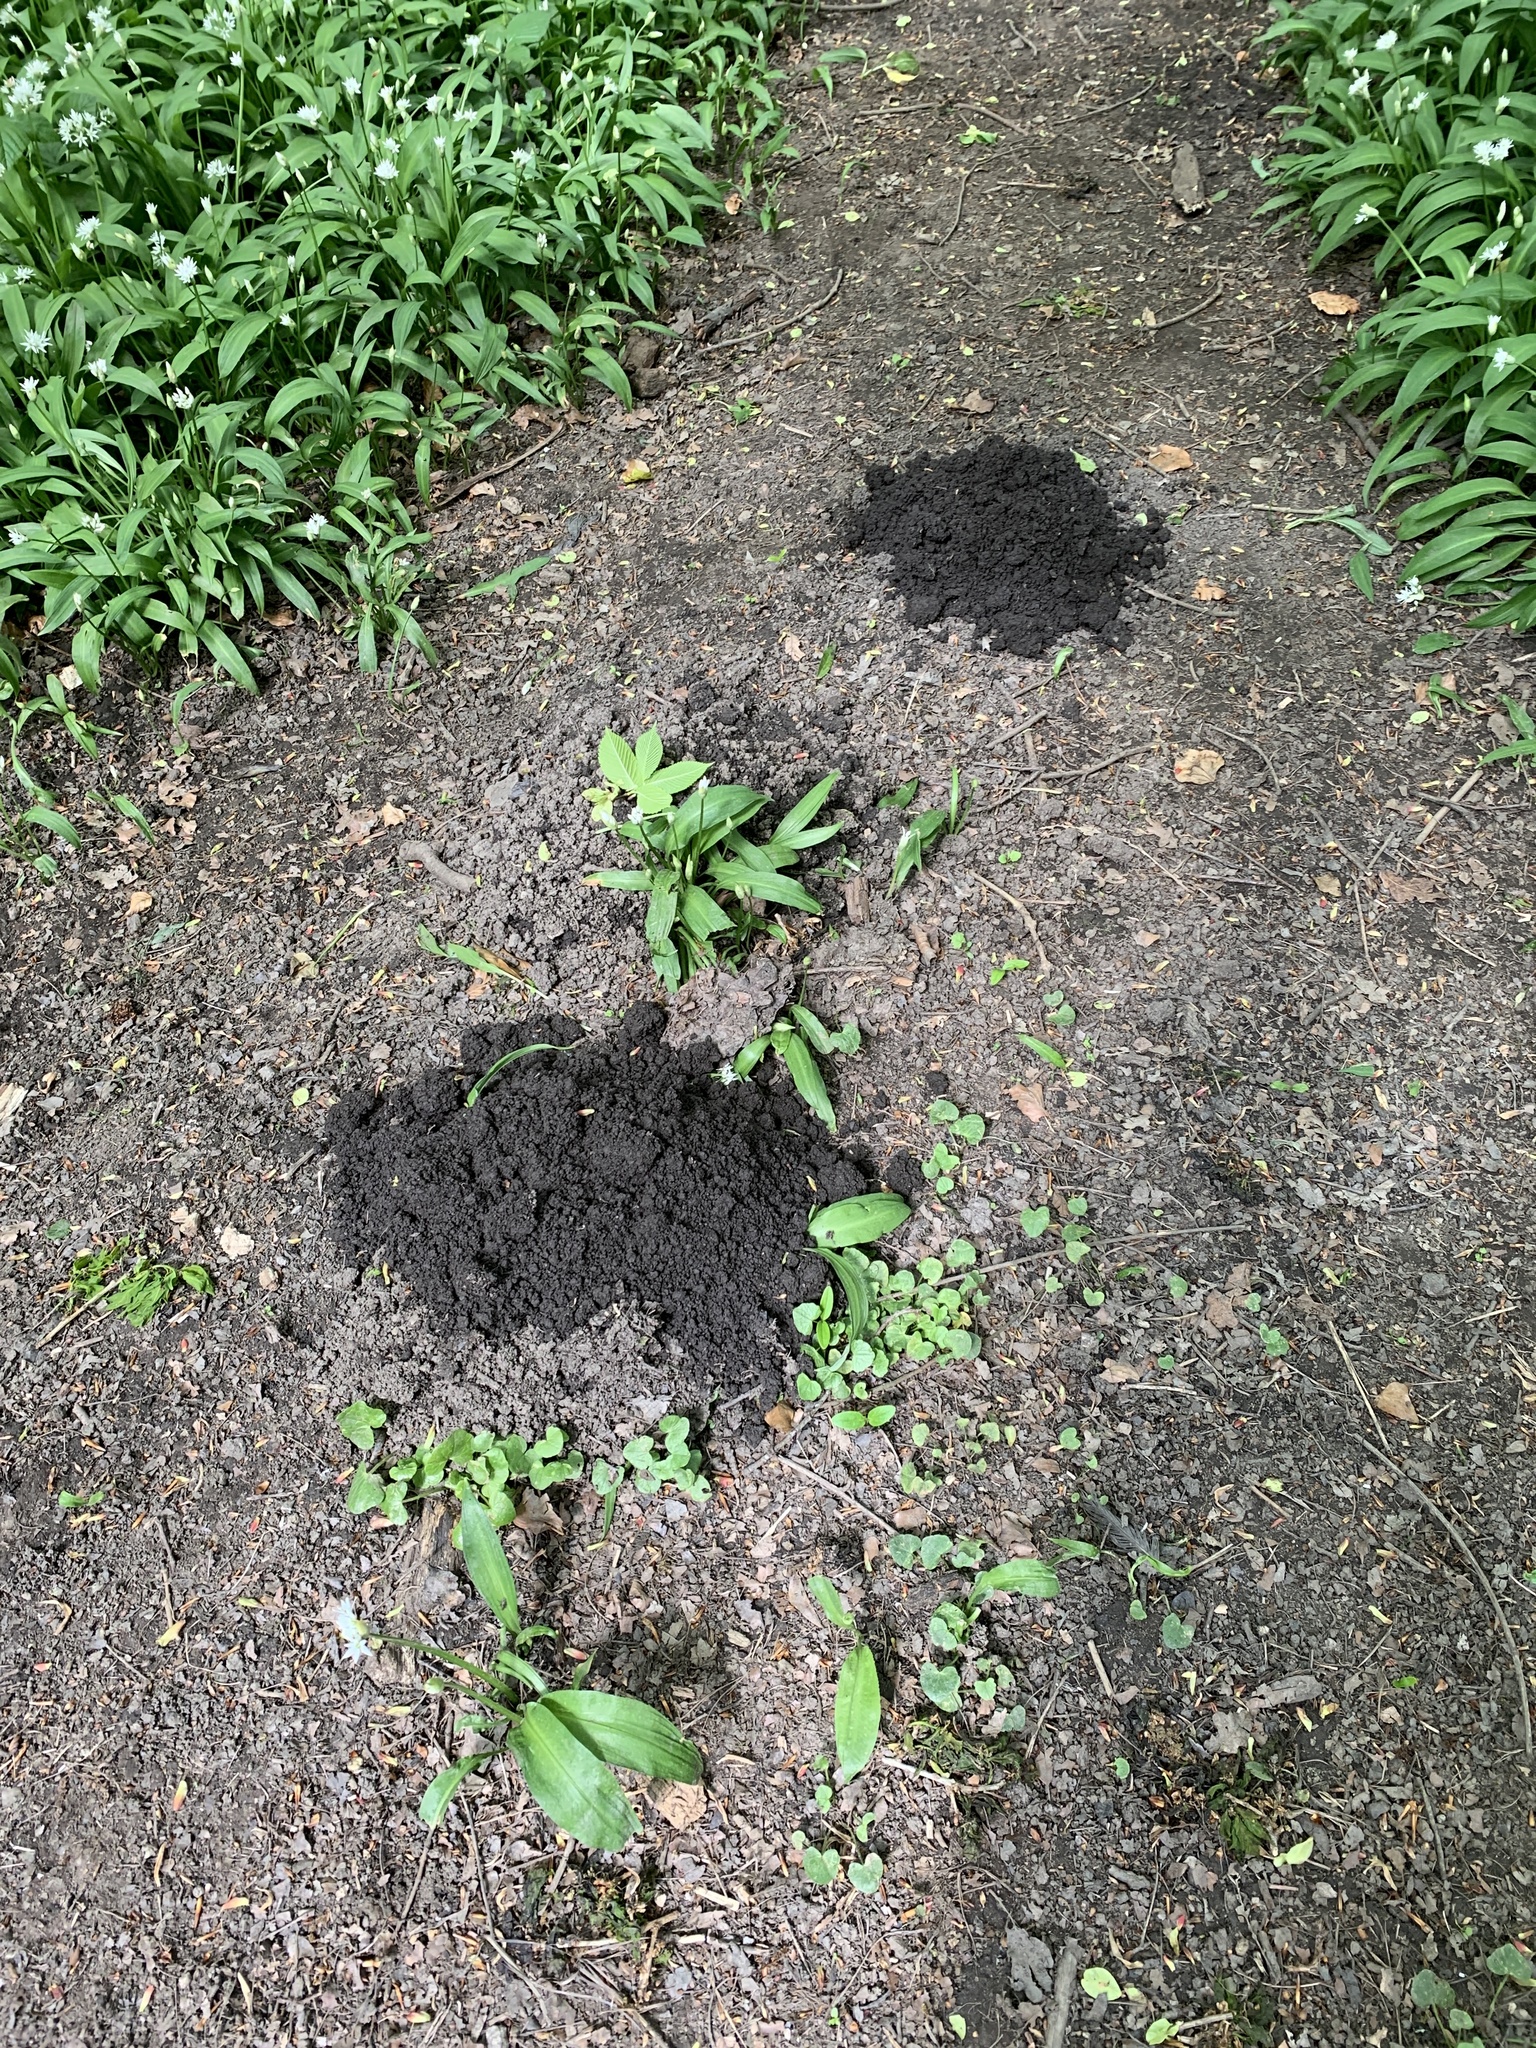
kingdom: Animalia
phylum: Chordata
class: Mammalia
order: Soricomorpha
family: Talpidae
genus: Talpa
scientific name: Talpa europaea
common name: European mole
